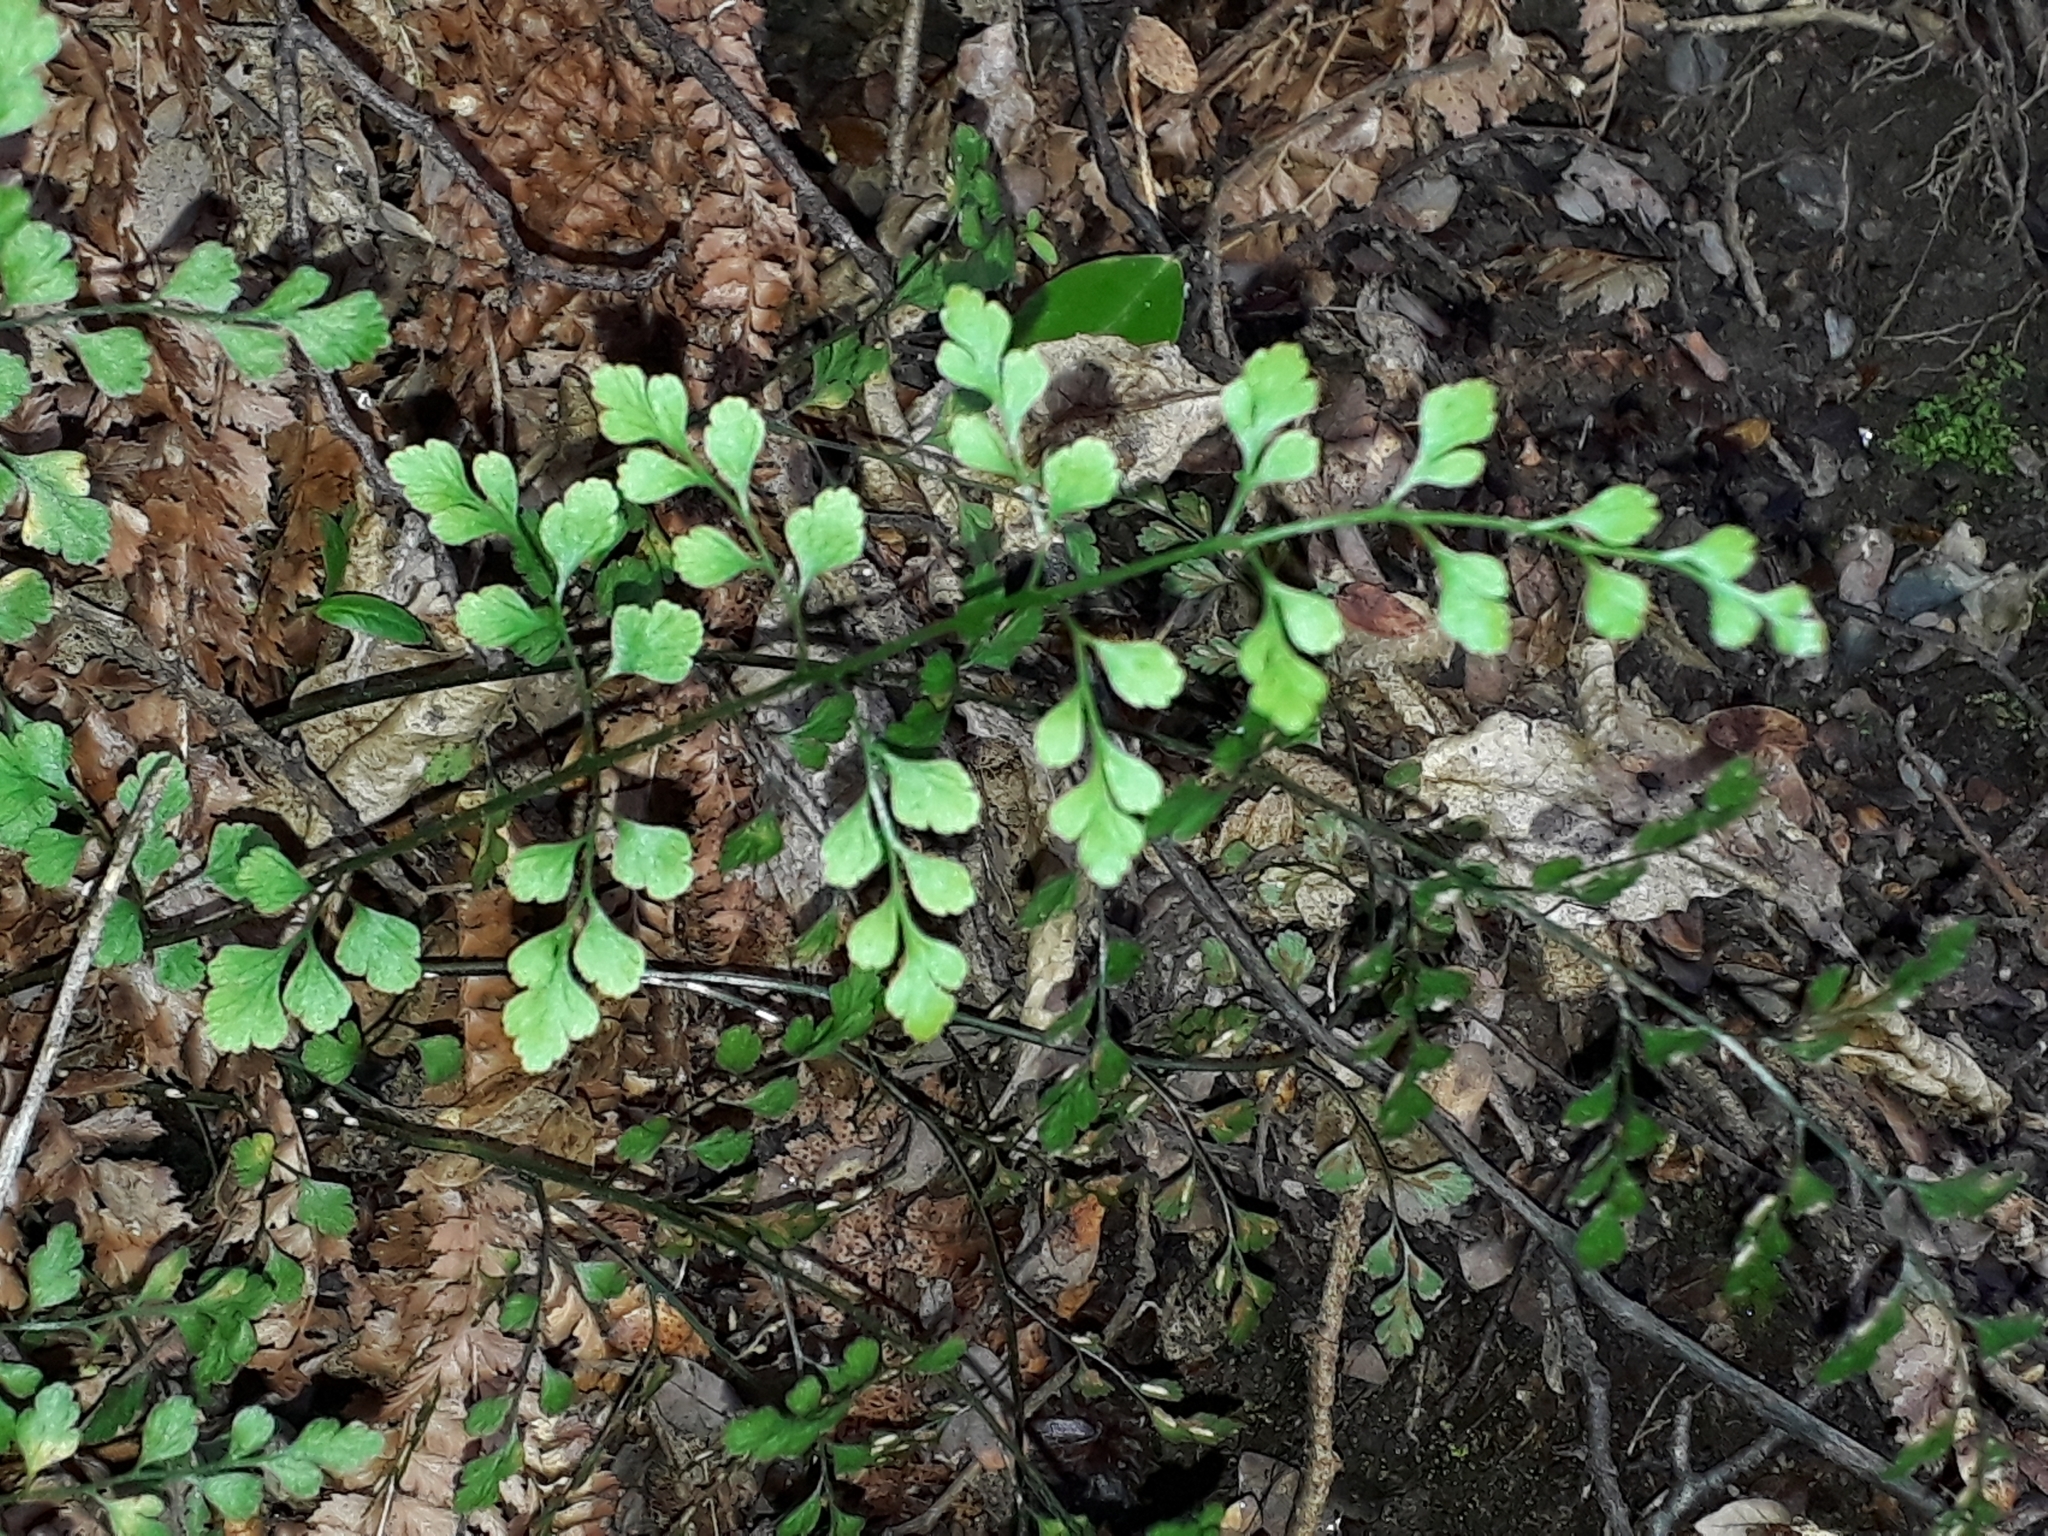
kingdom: Plantae
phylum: Tracheophyta
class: Polypodiopsida
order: Polypodiales
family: Aspleniaceae
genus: Asplenium
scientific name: Asplenium hookerianum
